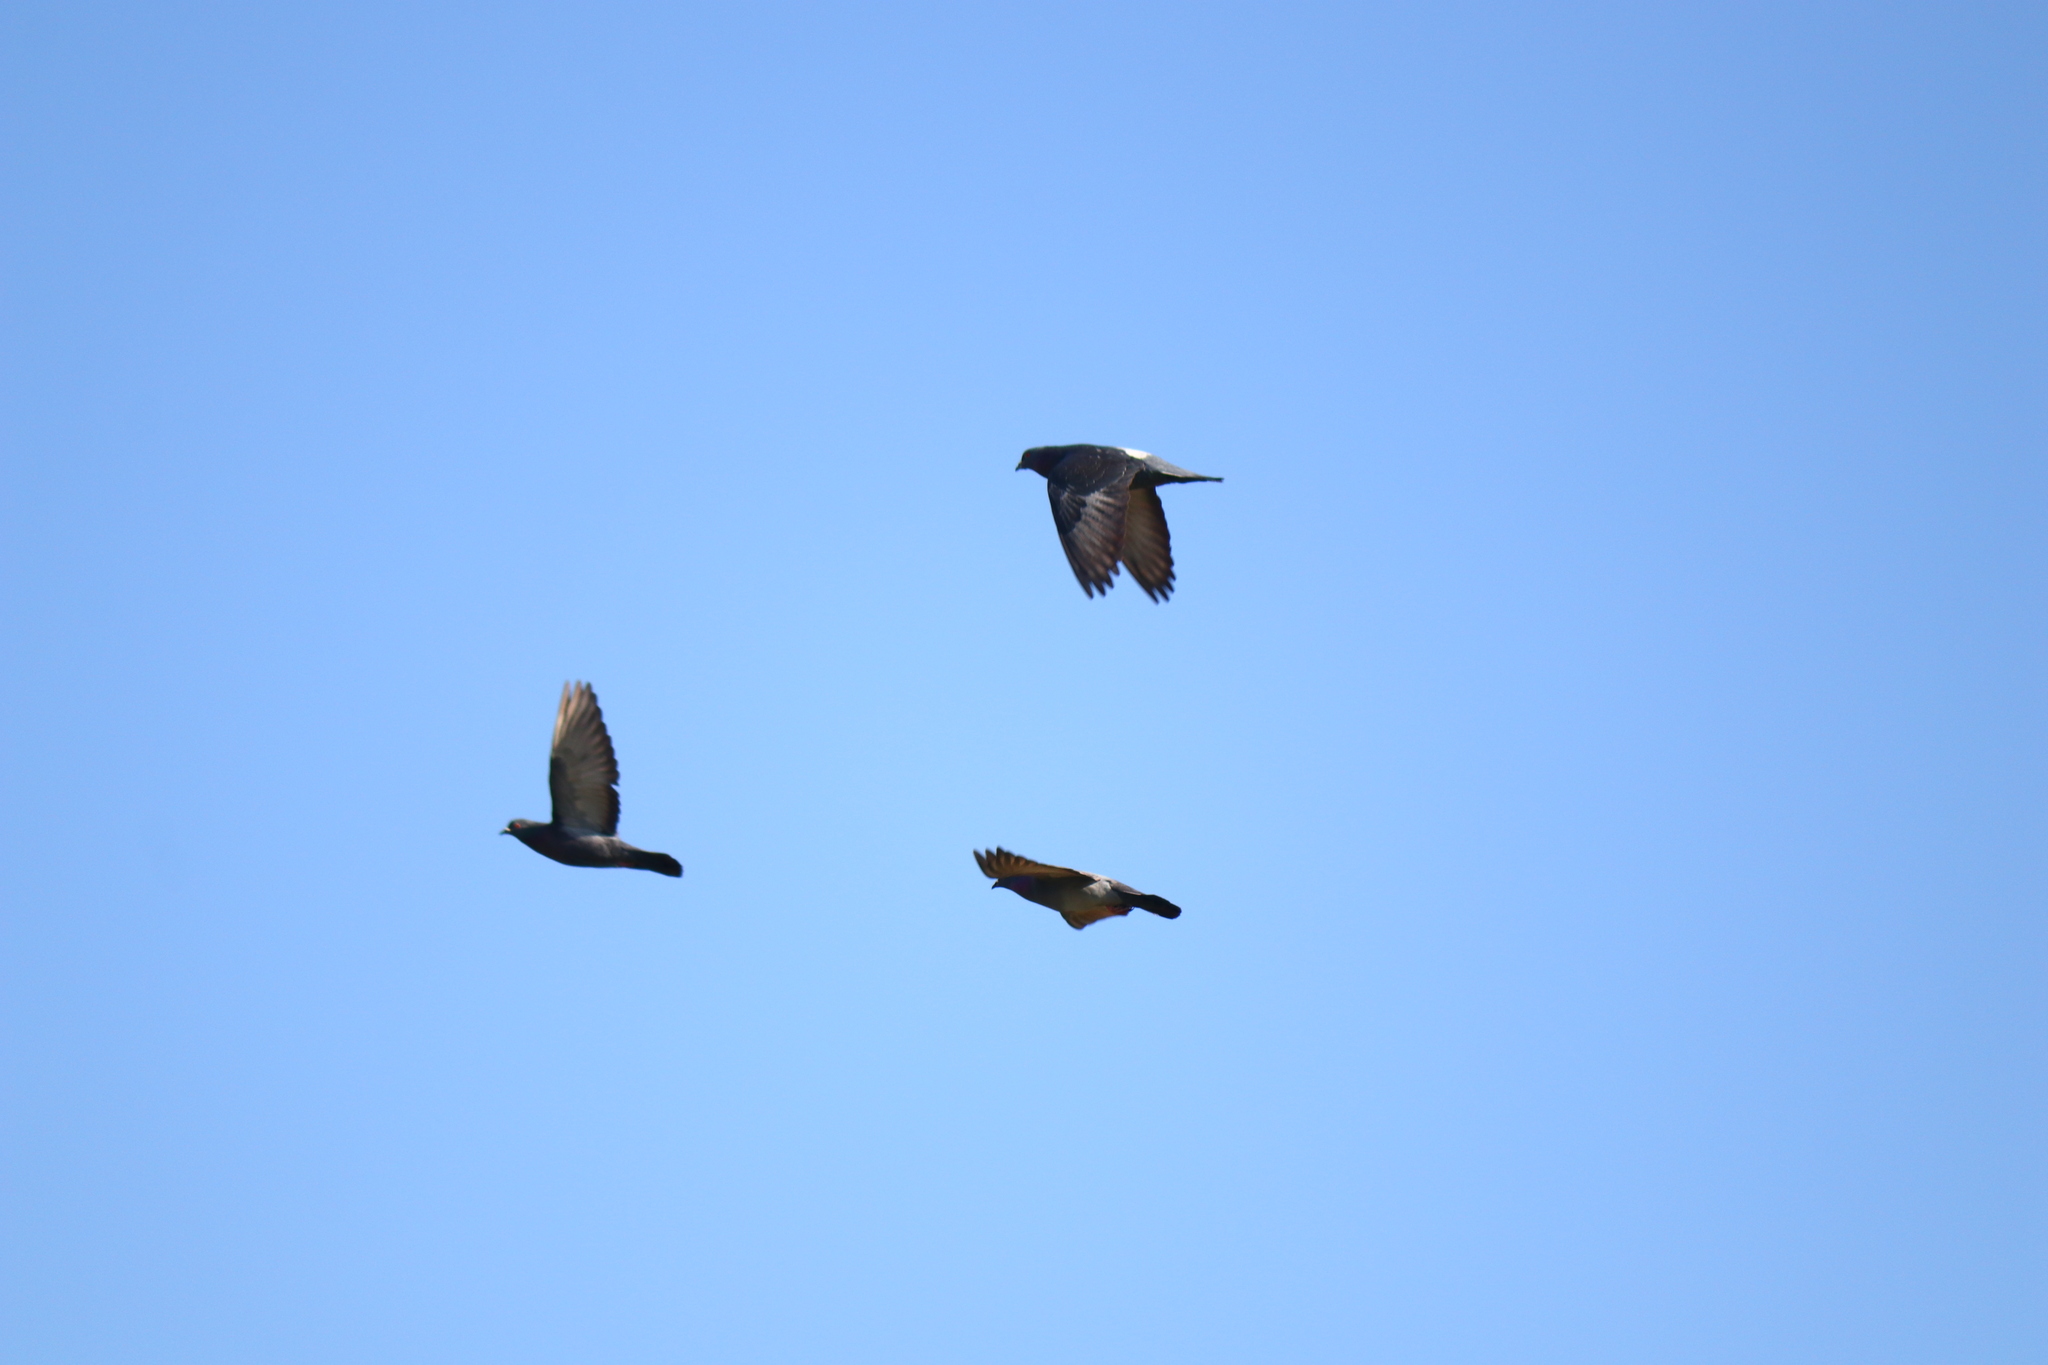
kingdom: Animalia
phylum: Chordata
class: Aves
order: Columbiformes
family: Columbidae
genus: Columba
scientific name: Columba livia
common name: Rock pigeon
